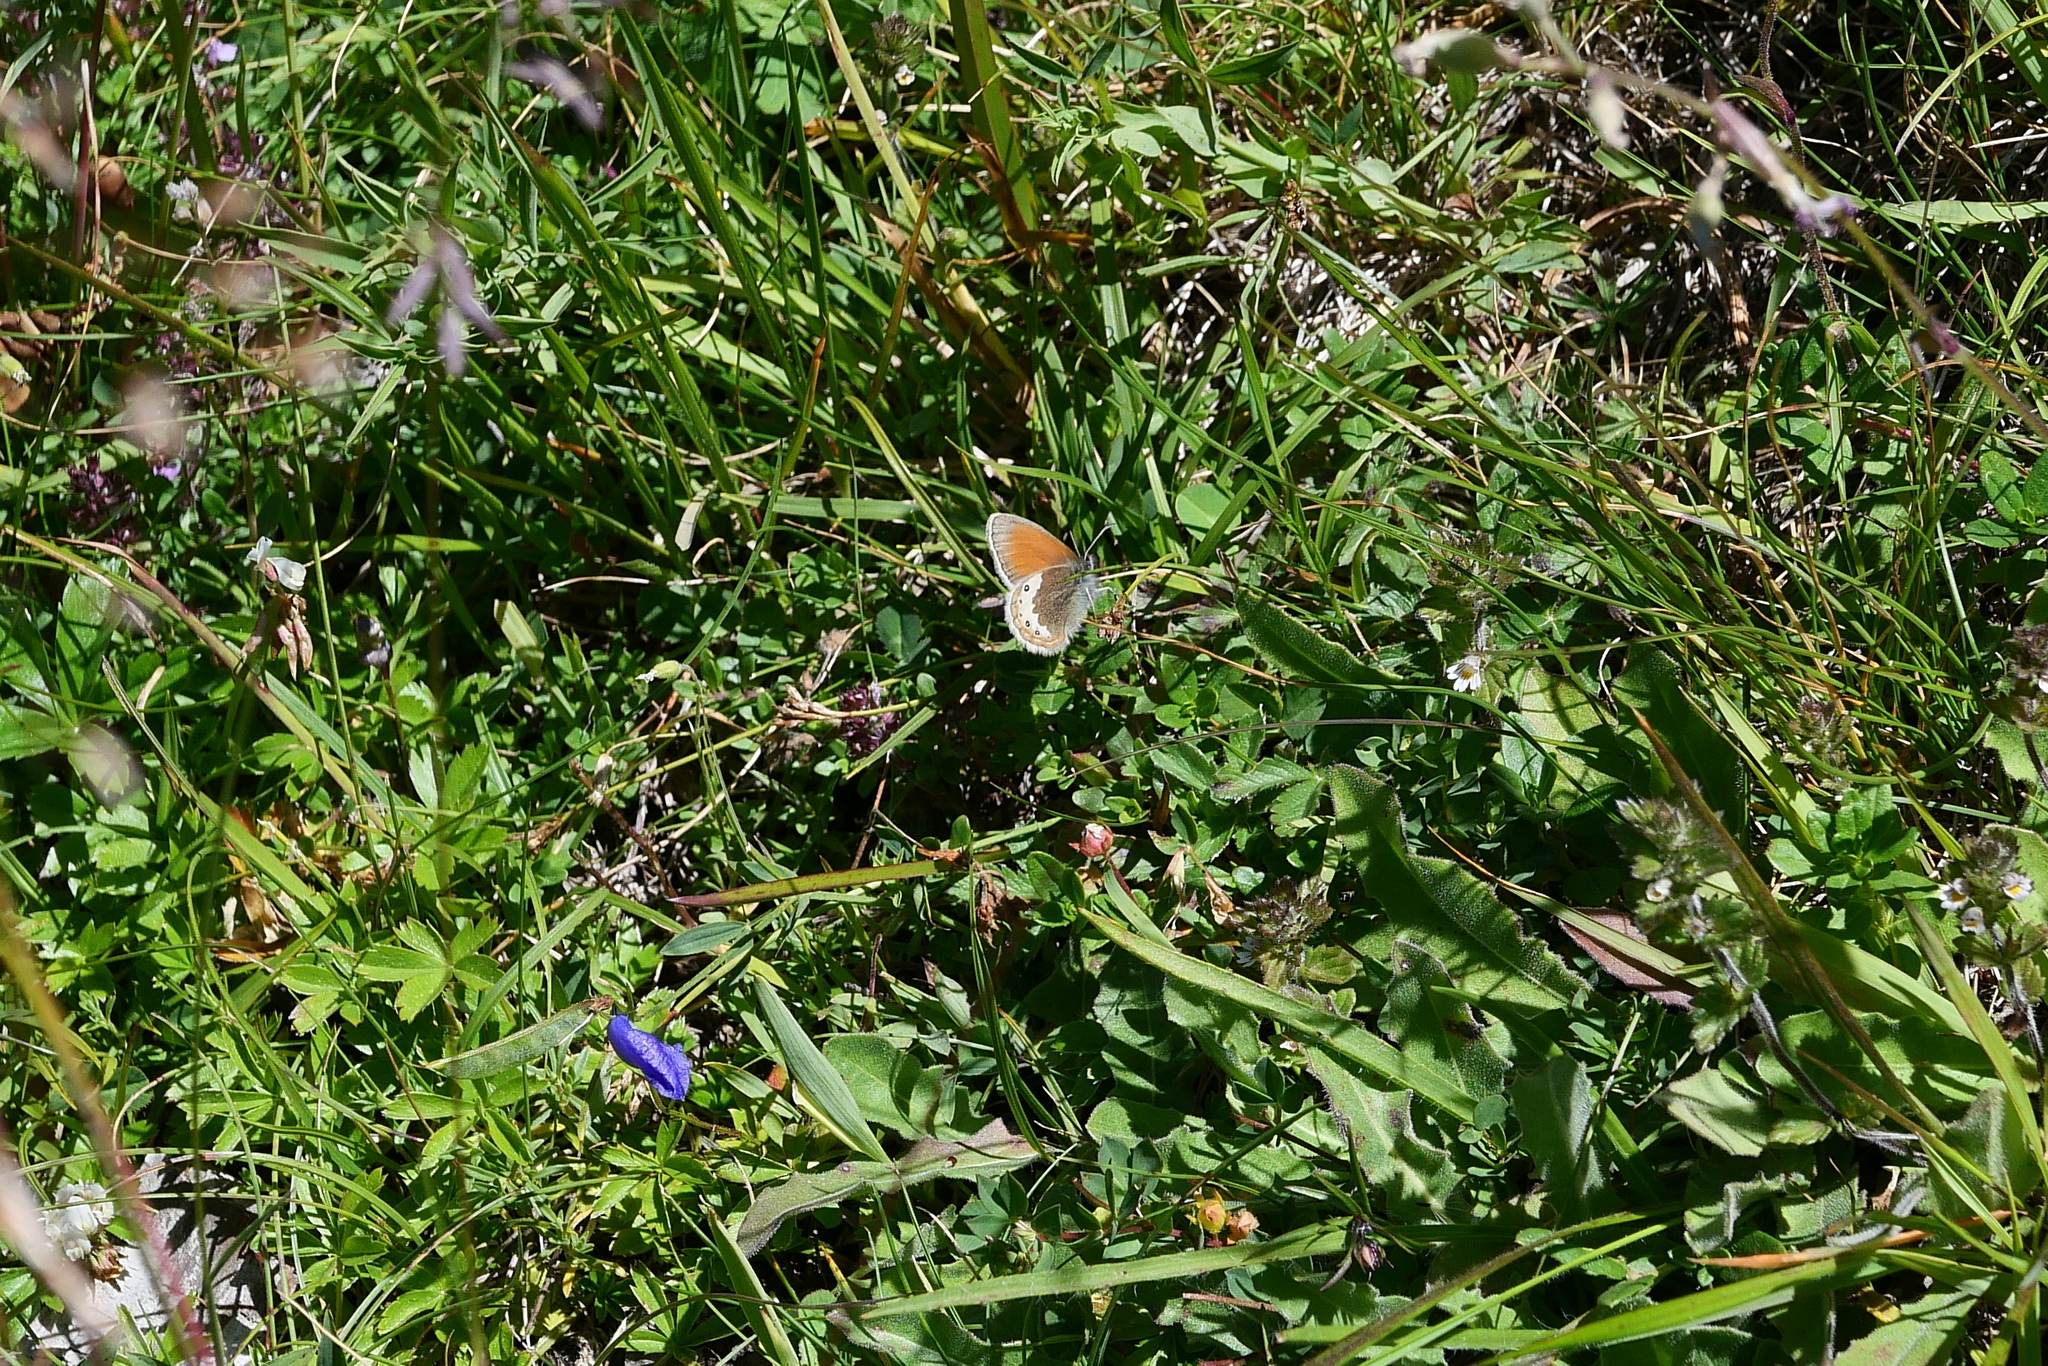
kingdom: Animalia
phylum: Arthropoda
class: Insecta
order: Lepidoptera
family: Nymphalidae
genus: Coenonympha
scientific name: Coenonympha
